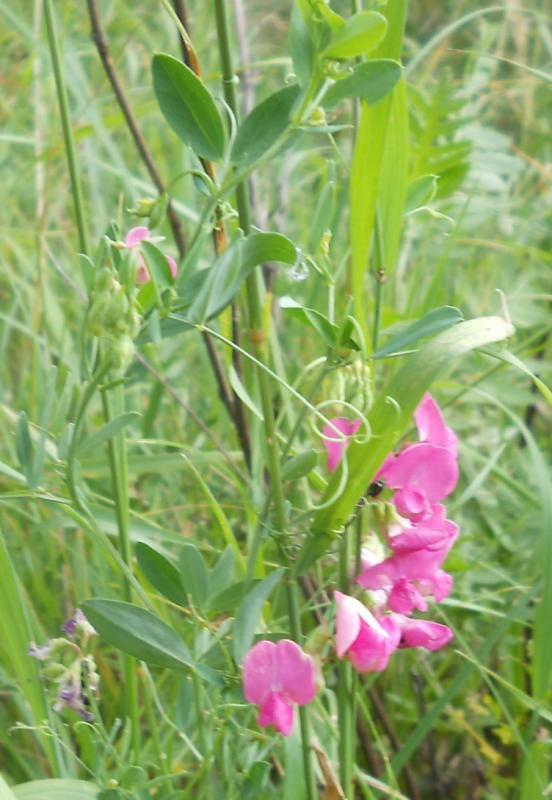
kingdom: Plantae
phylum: Tracheophyta
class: Magnoliopsida
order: Fabales
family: Fabaceae
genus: Lathyrus
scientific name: Lathyrus tuberosus
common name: Tuberous pea
